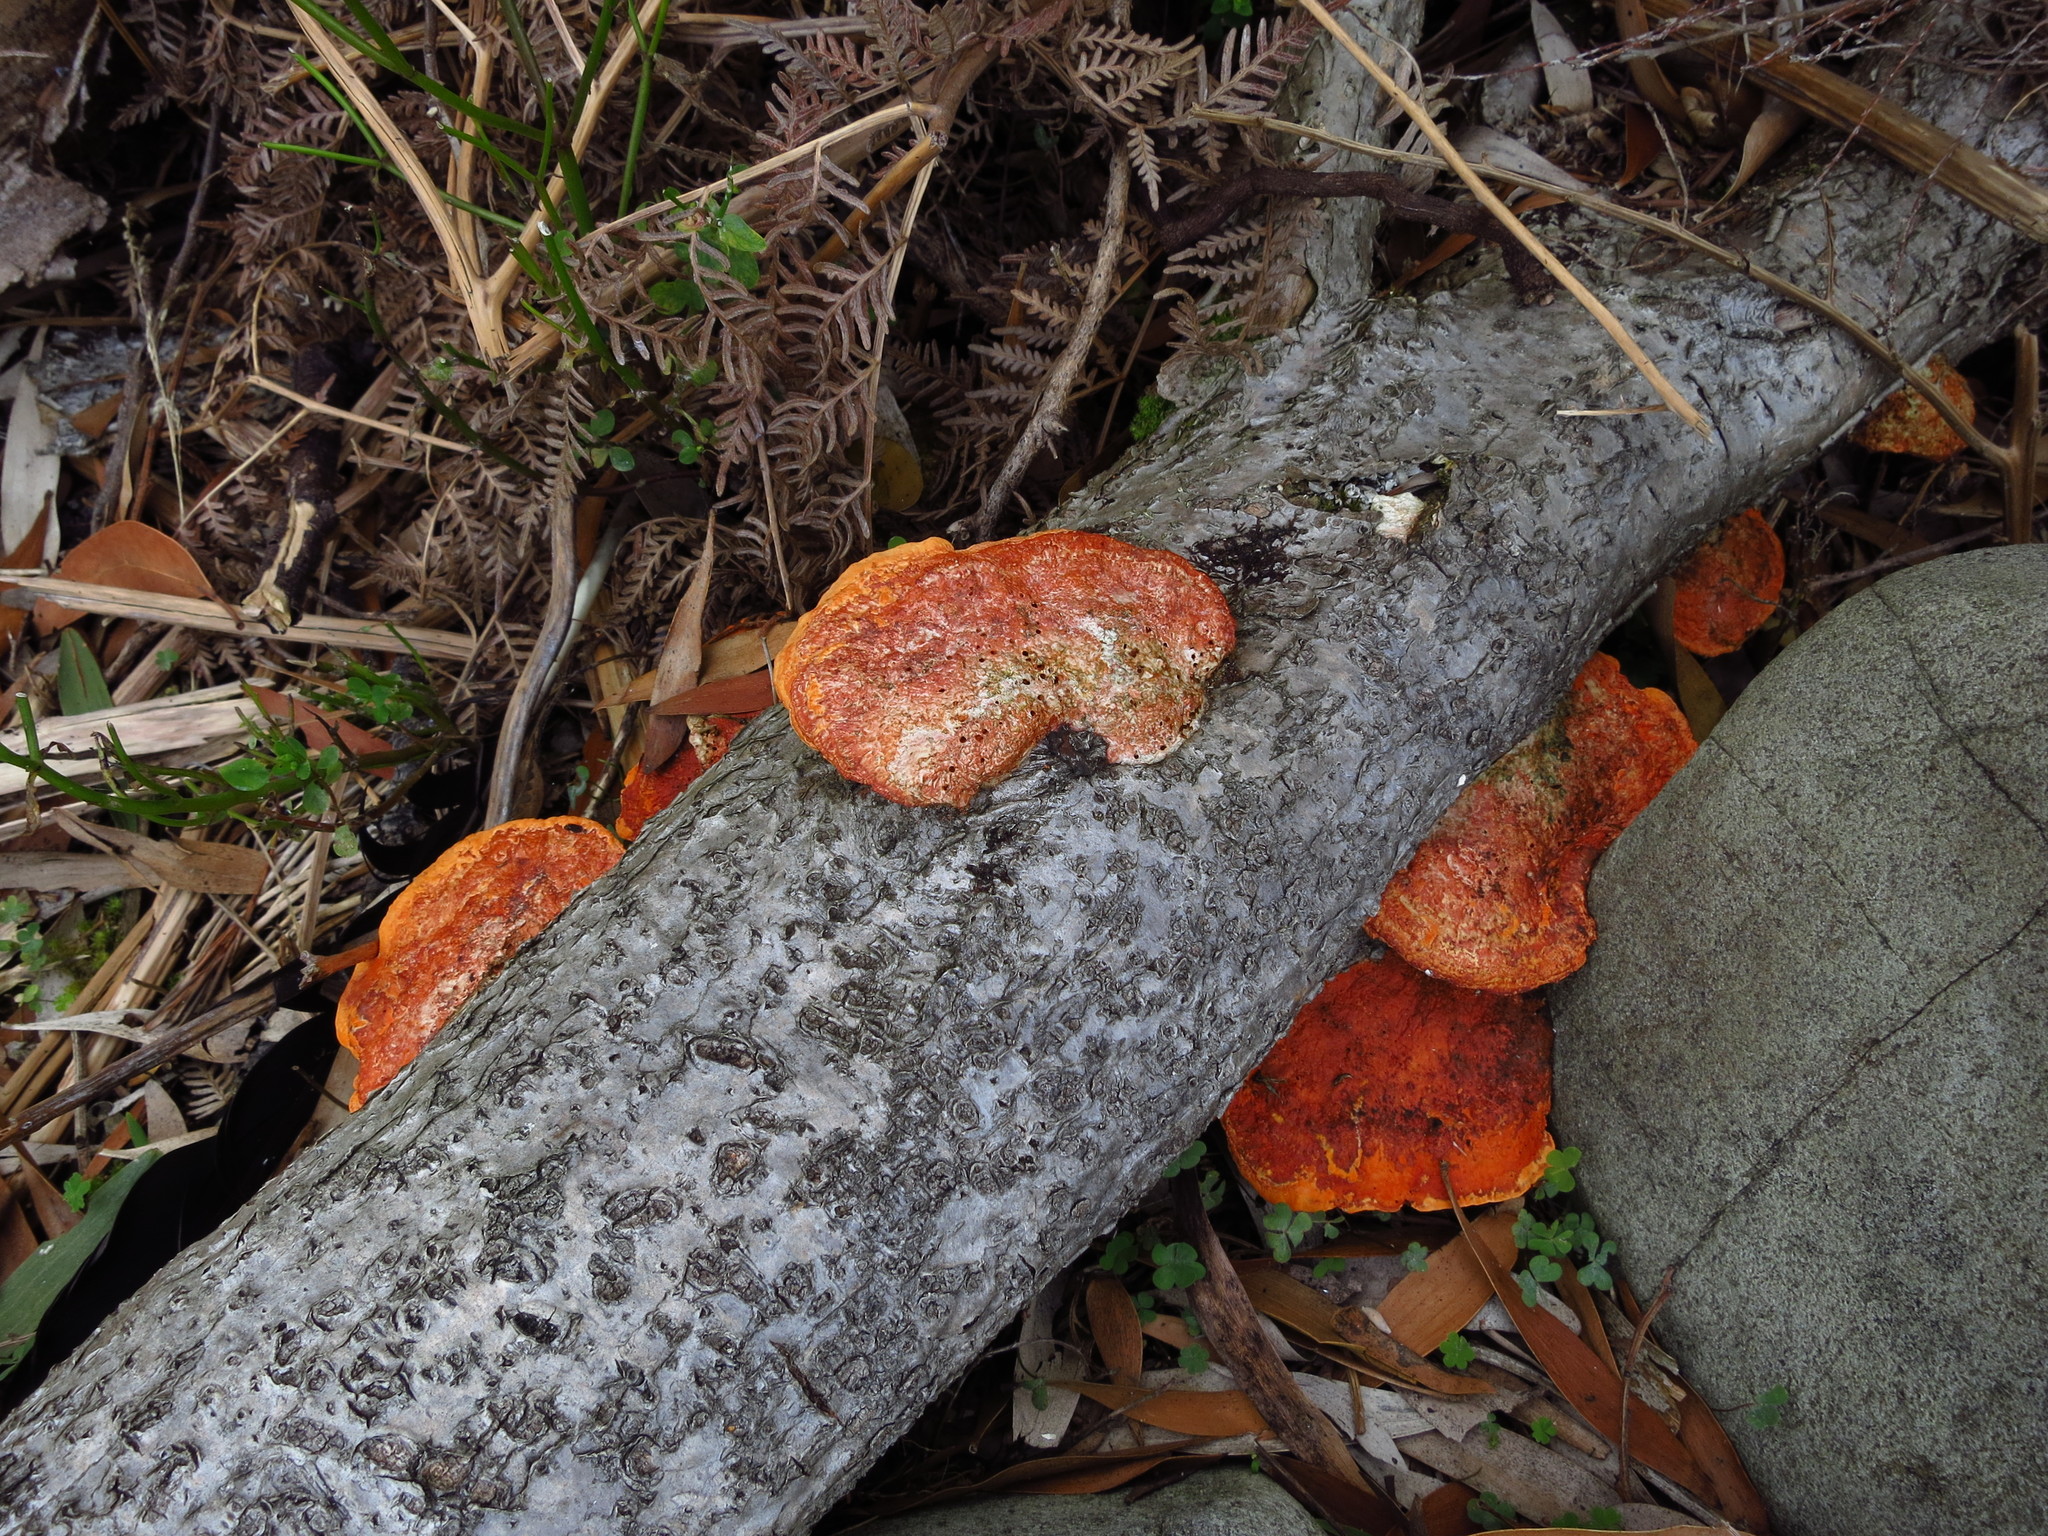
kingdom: Fungi
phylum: Basidiomycota
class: Agaricomycetes
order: Polyporales
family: Polyporaceae
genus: Trametes
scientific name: Trametes coccinea
